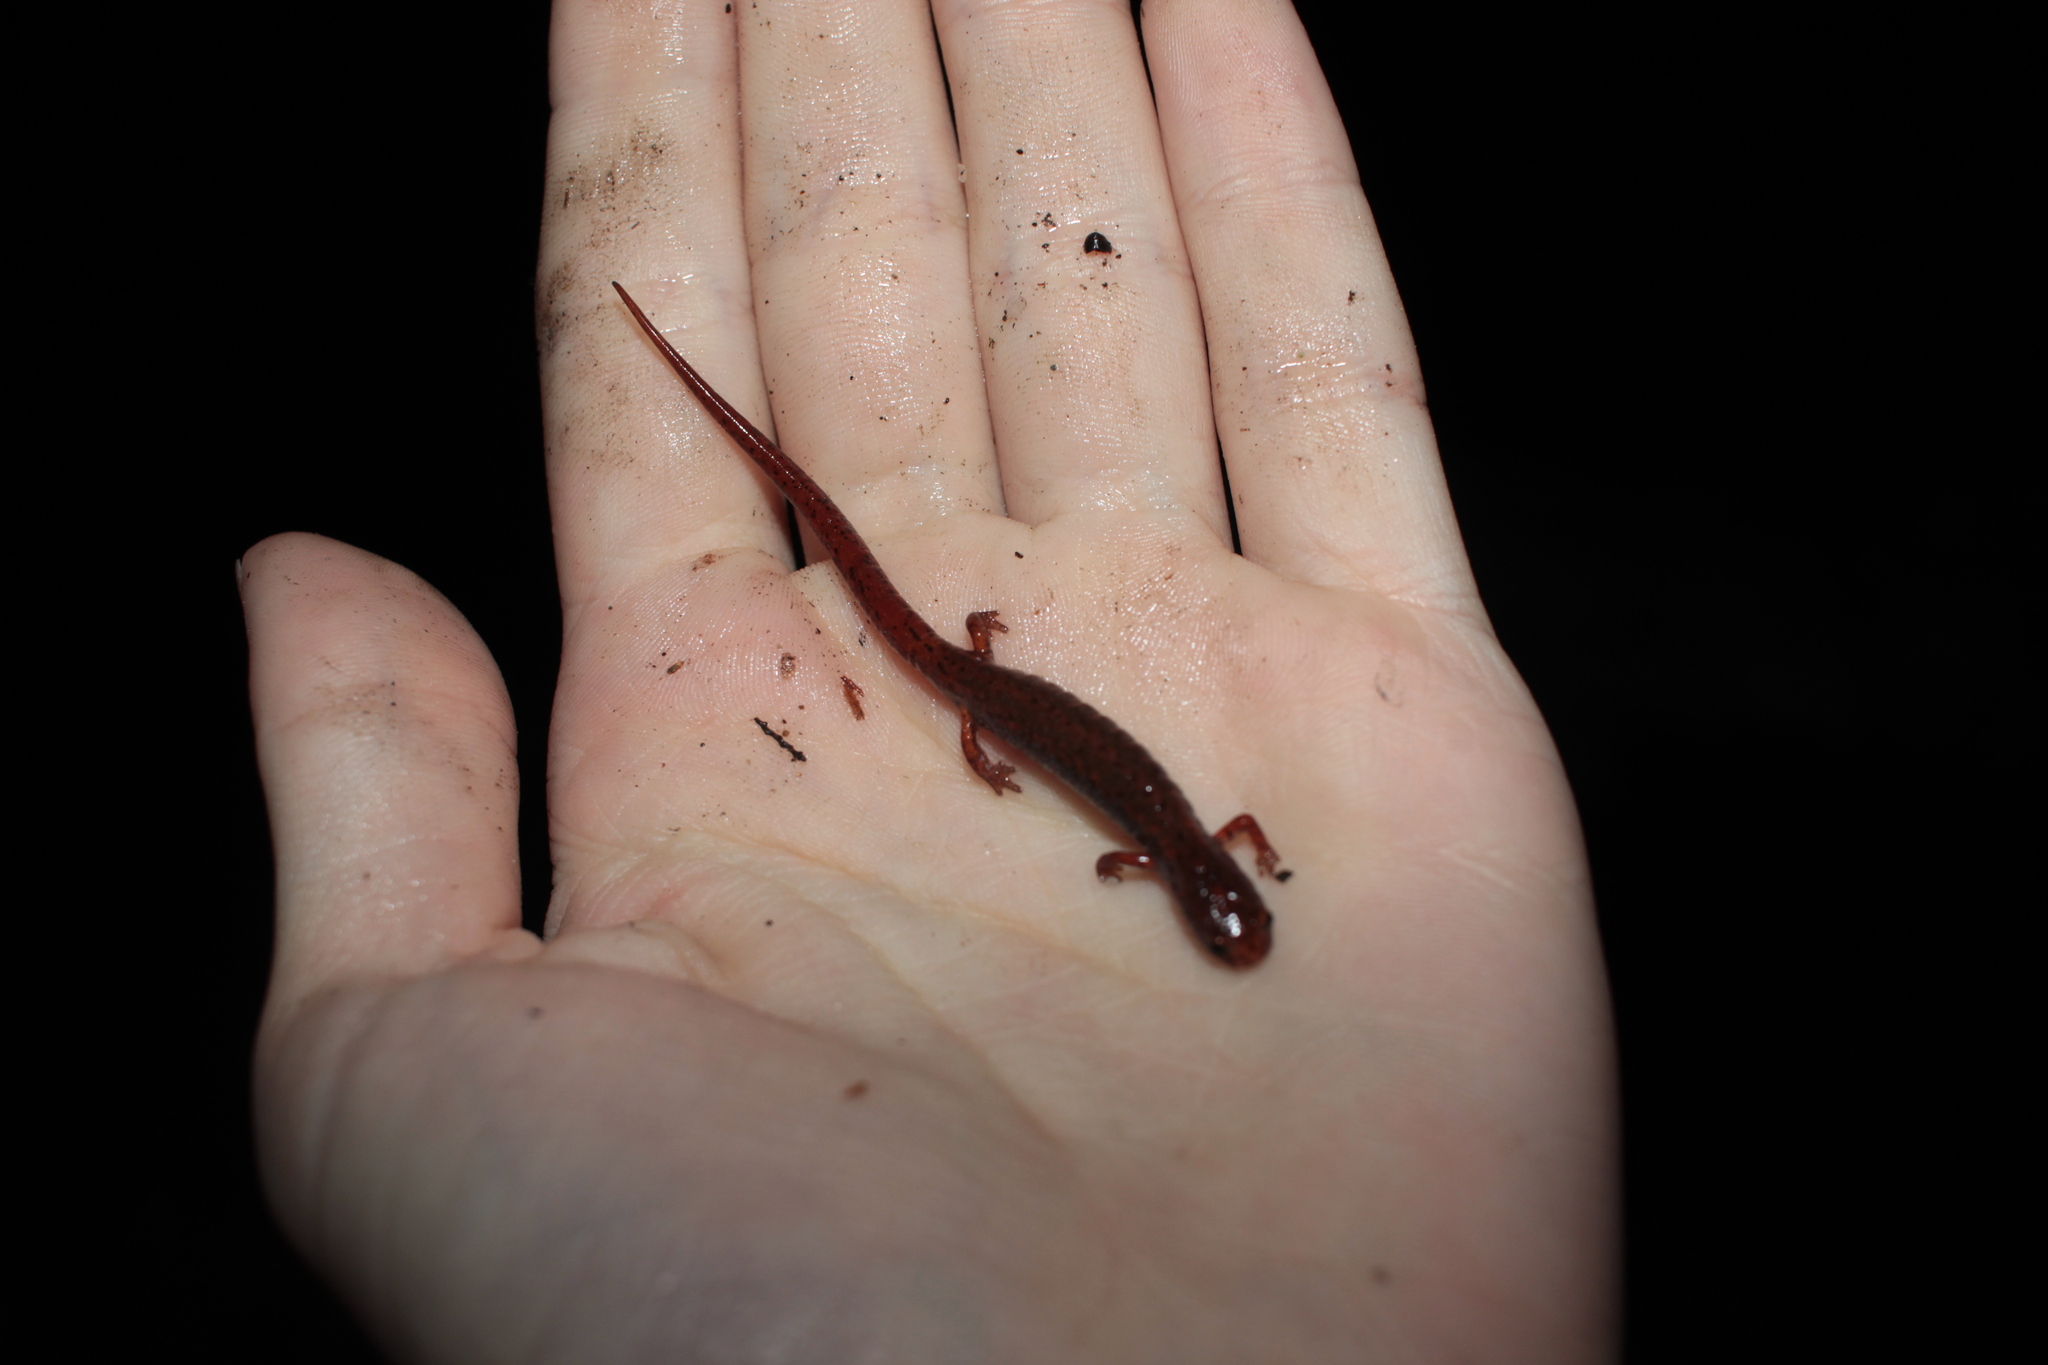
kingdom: Animalia
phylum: Chordata
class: Amphibia
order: Caudata
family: Plethodontidae
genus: Hemidactylium
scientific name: Hemidactylium scutatum
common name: Four-toed salamander
